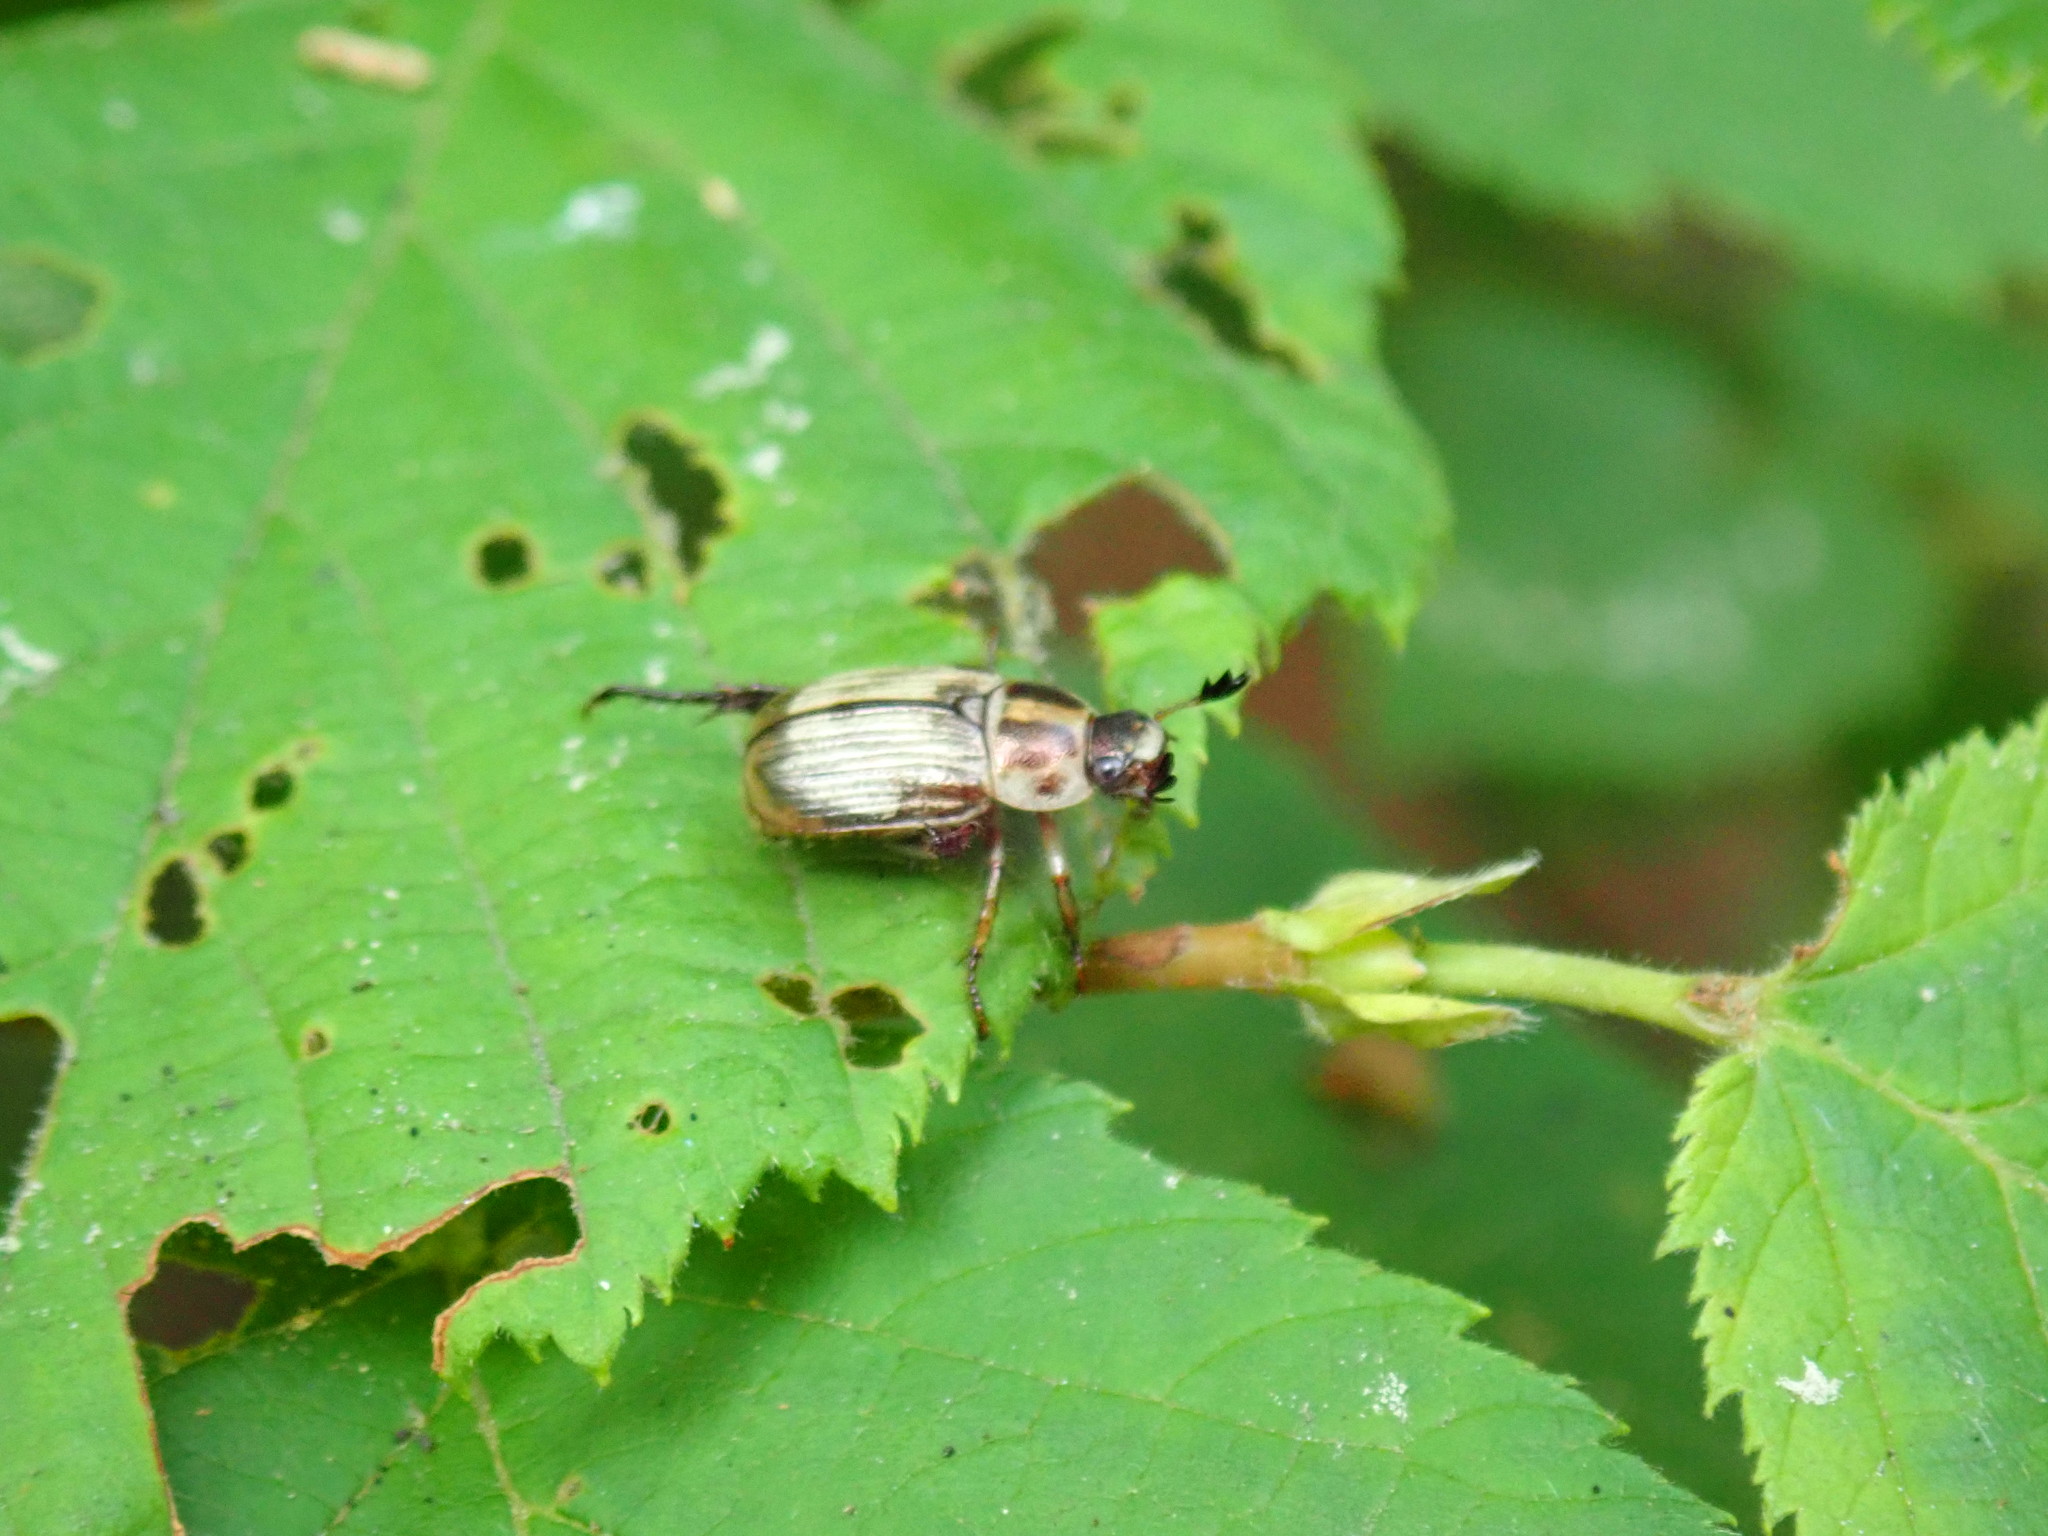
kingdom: Animalia
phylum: Arthropoda
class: Insecta
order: Coleoptera
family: Scarabaeidae
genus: Exomala
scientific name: Exomala orientalis
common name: Oriental beetle
